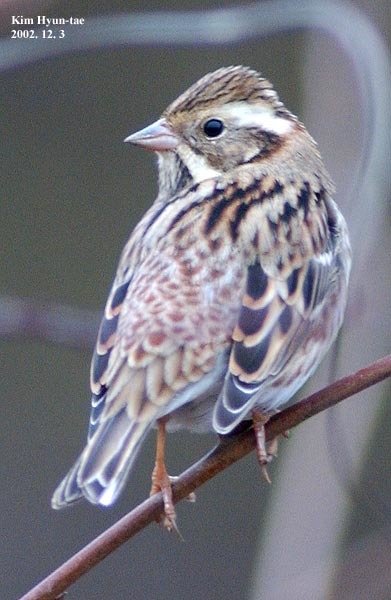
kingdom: Animalia
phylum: Chordata
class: Aves
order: Passeriformes
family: Emberizidae
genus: Emberiza
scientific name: Emberiza rustica
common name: Rustic bunting
